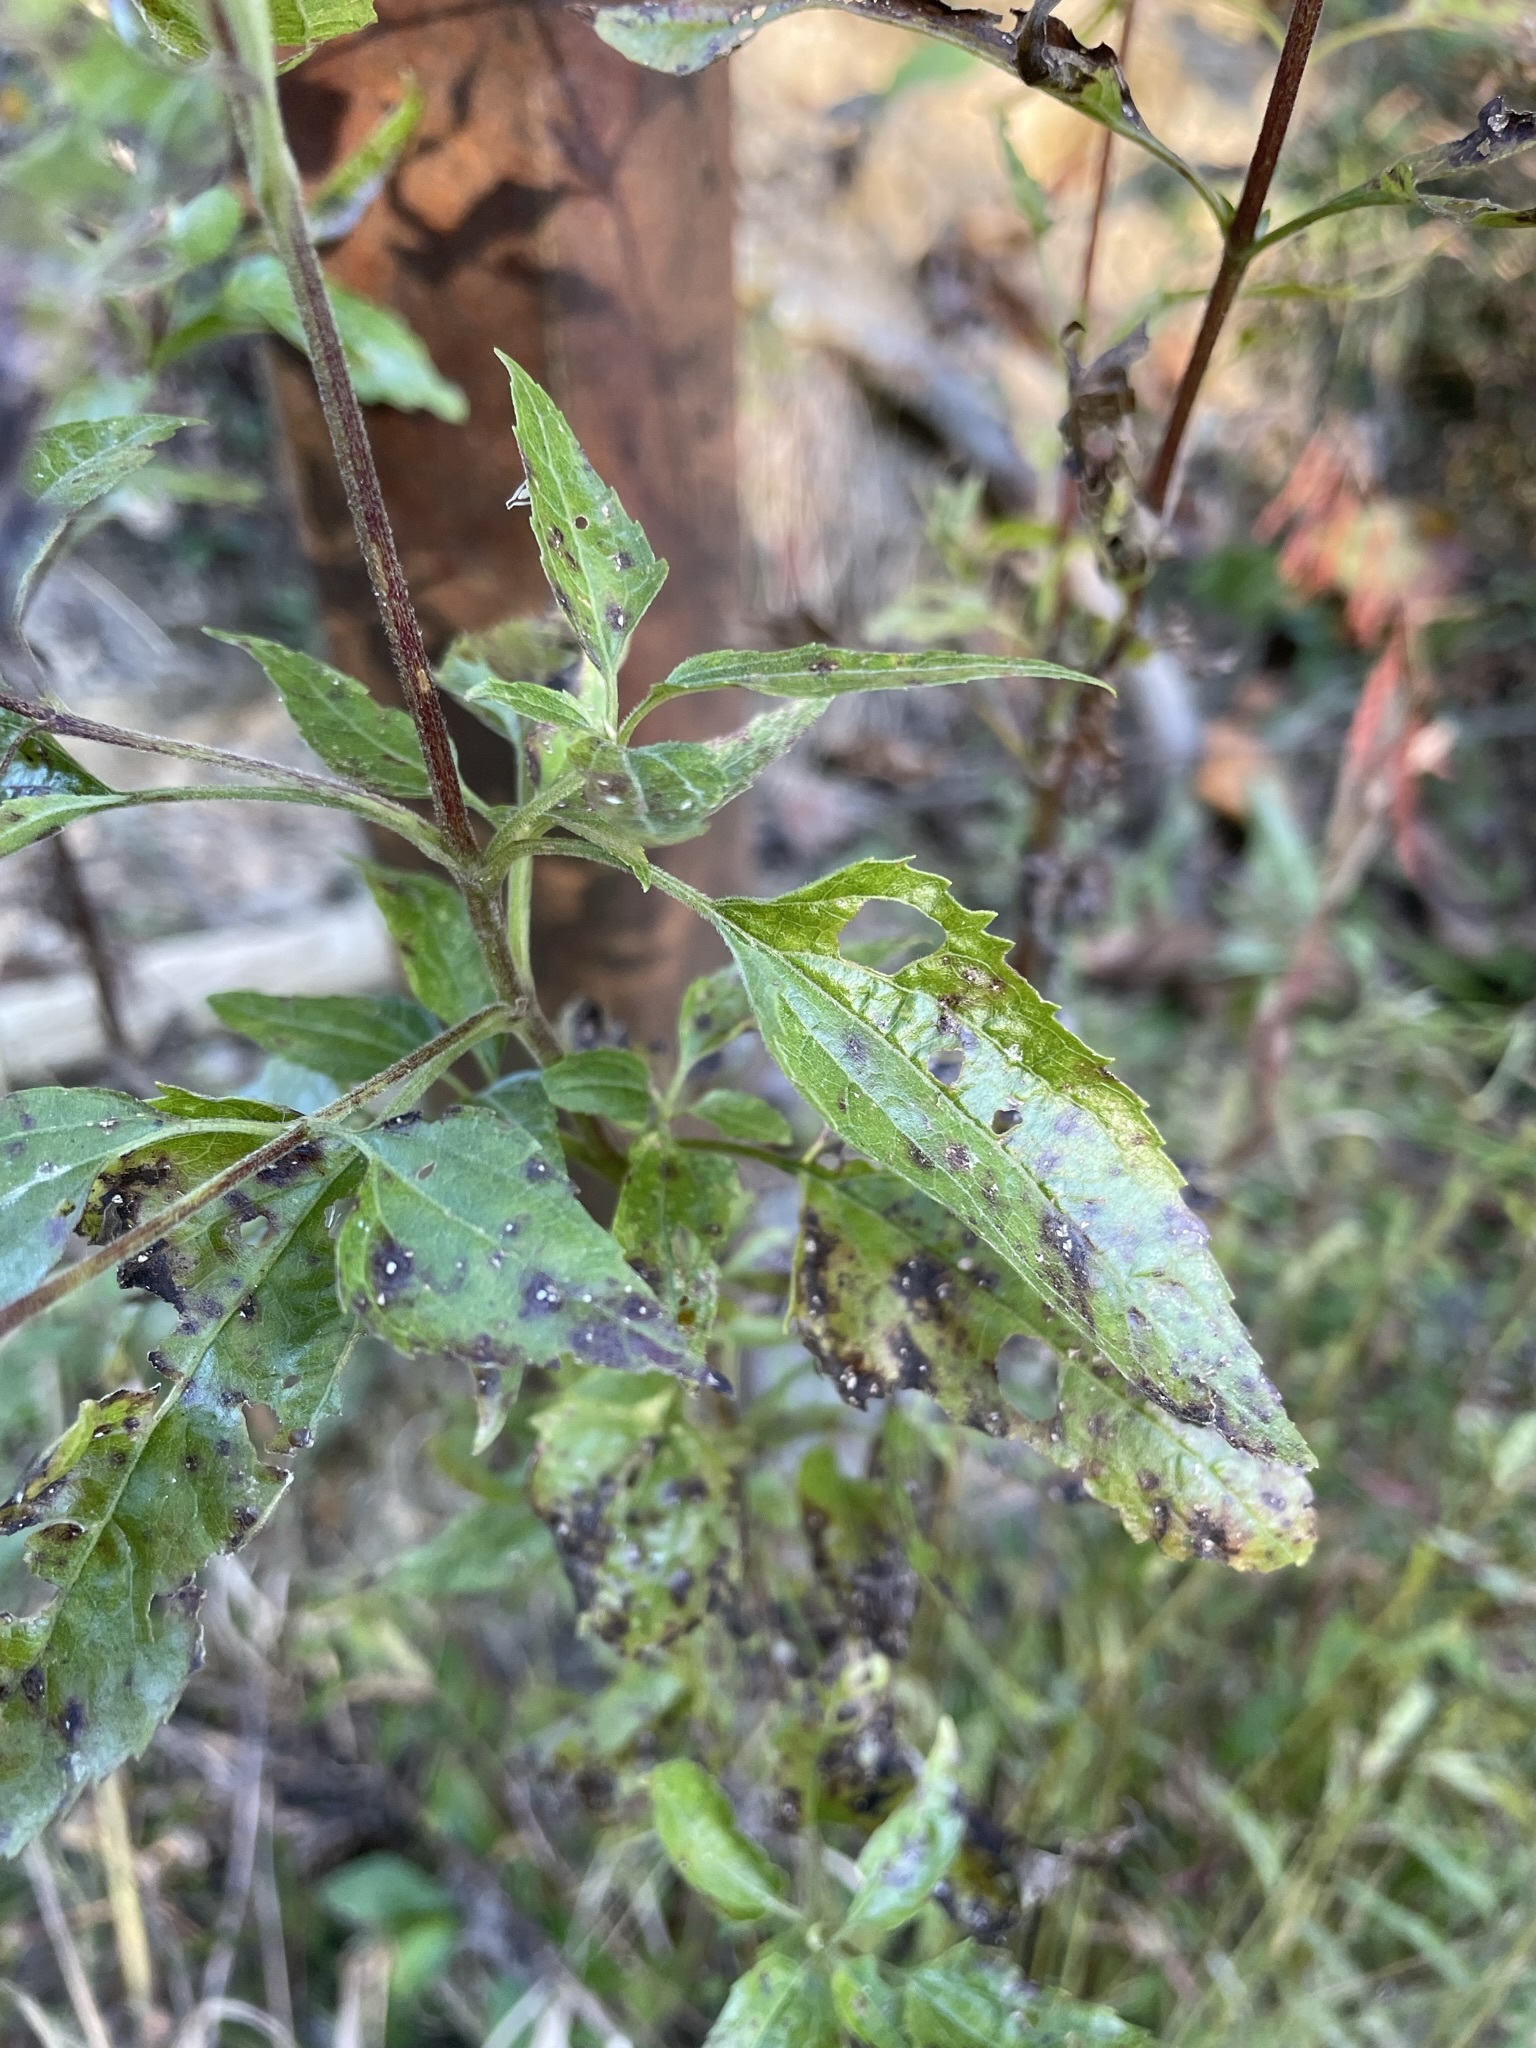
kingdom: Plantae
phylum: Tracheophyta
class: Magnoliopsida
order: Asterales
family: Asteraceae
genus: Eupatorium
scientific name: Eupatorium serotinum
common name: Late boneset
